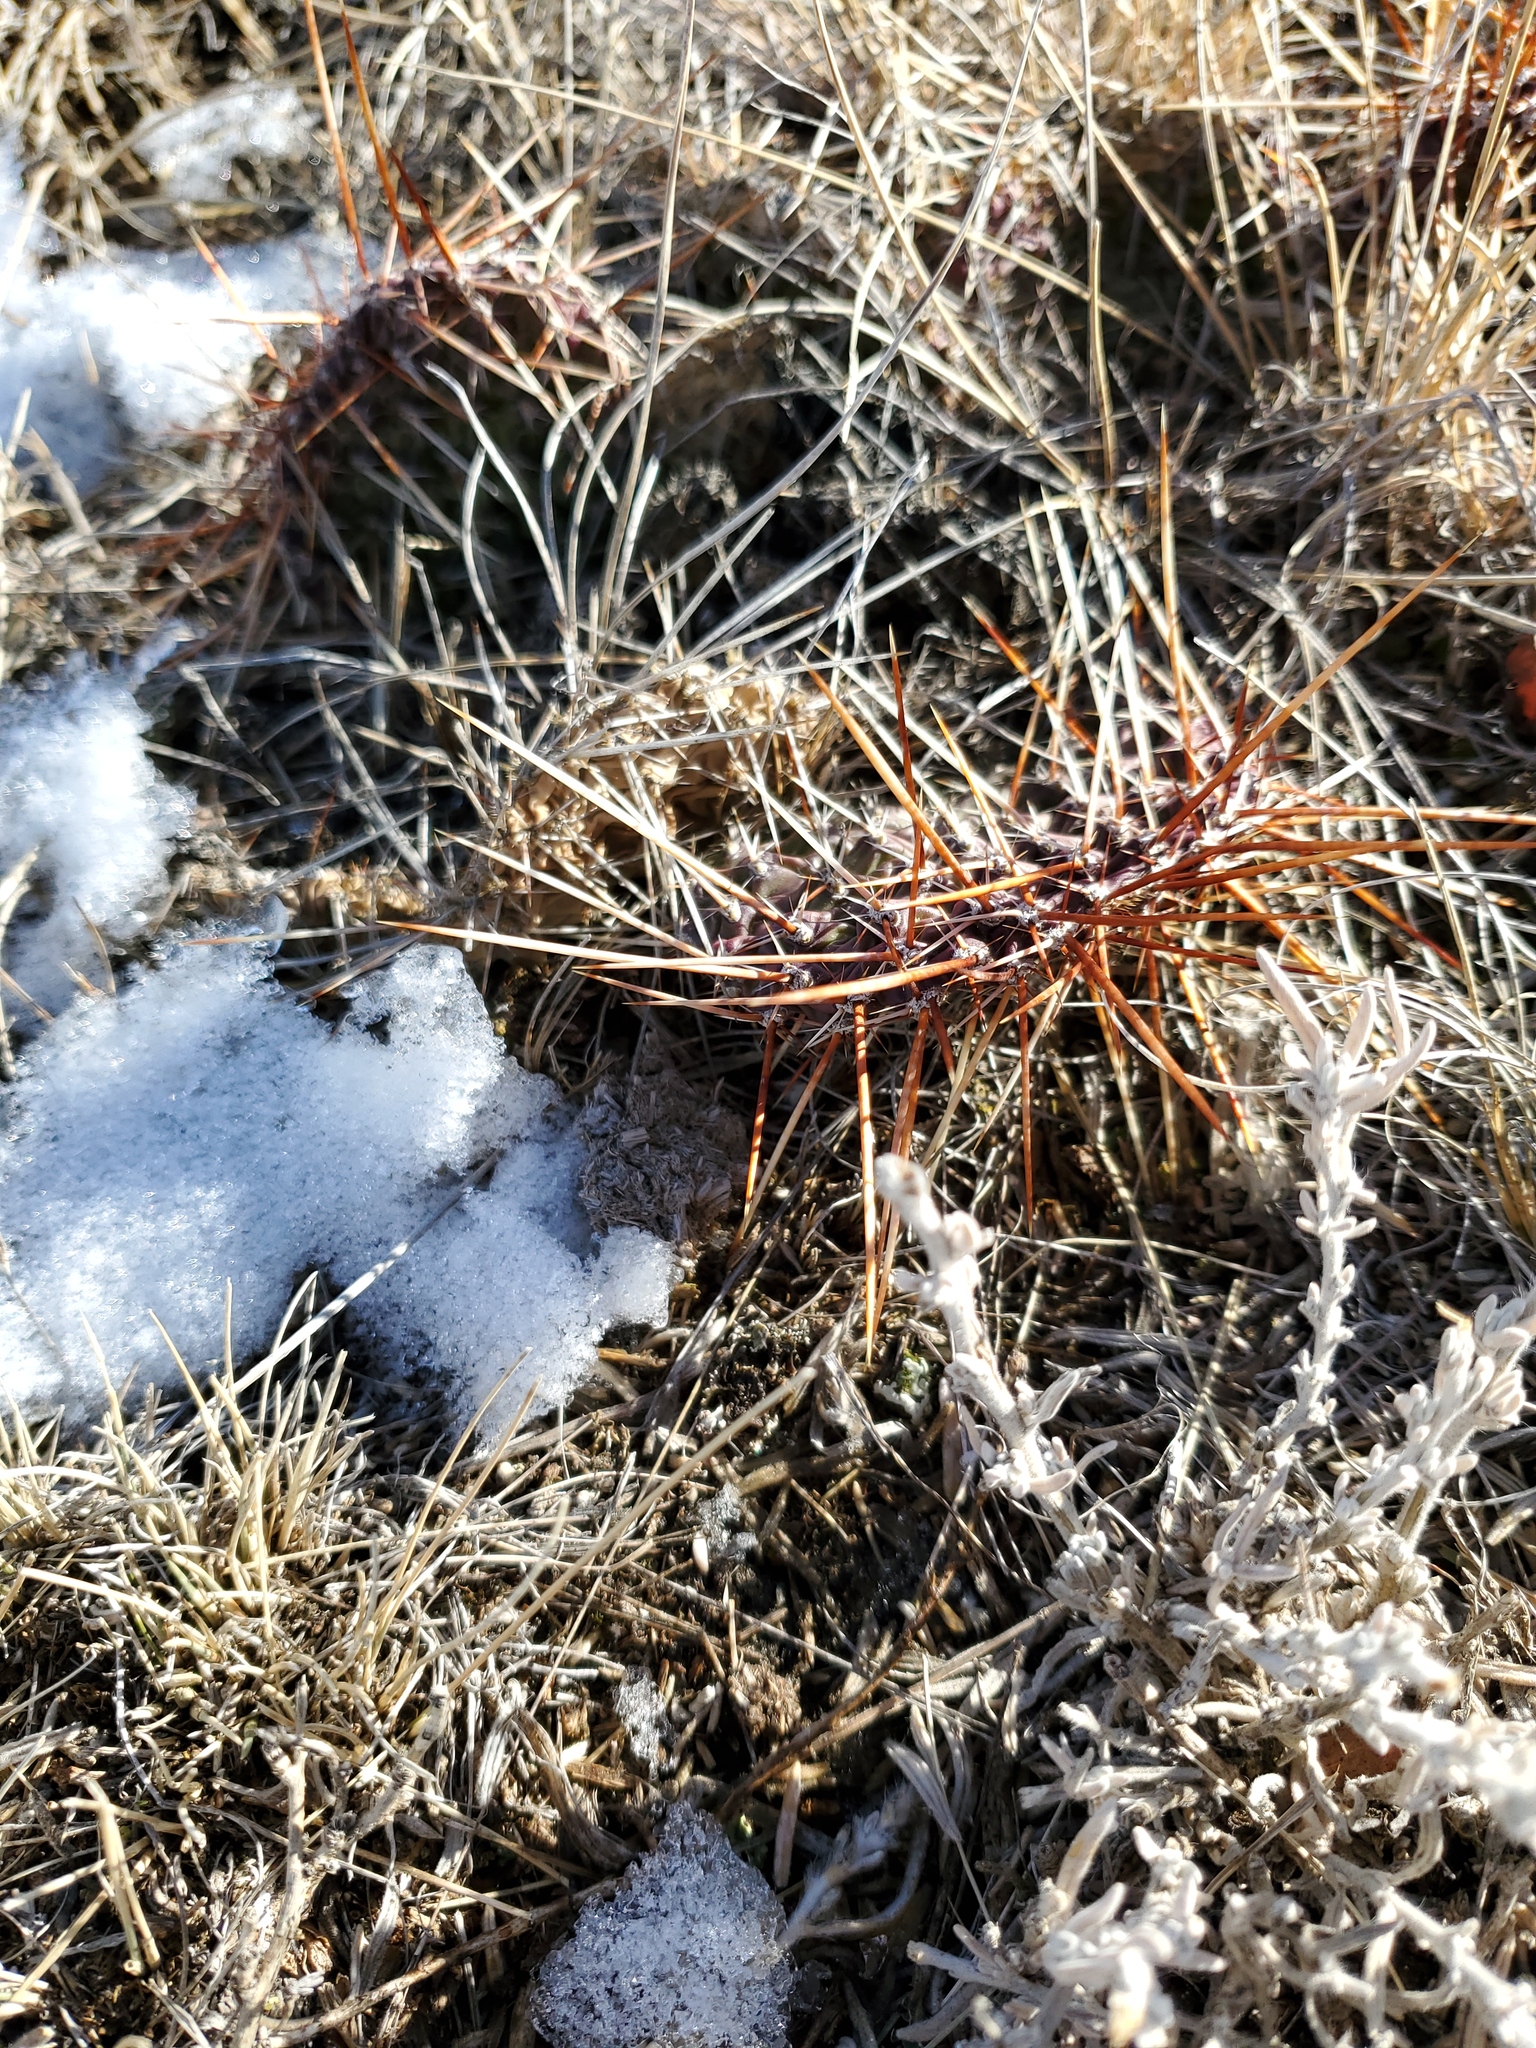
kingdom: Plantae
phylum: Tracheophyta
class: Magnoliopsida
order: Caryophyllales
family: Cactaceae
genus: Opuntia
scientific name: Opuntia polyacantha
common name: Plains prickly-pear
